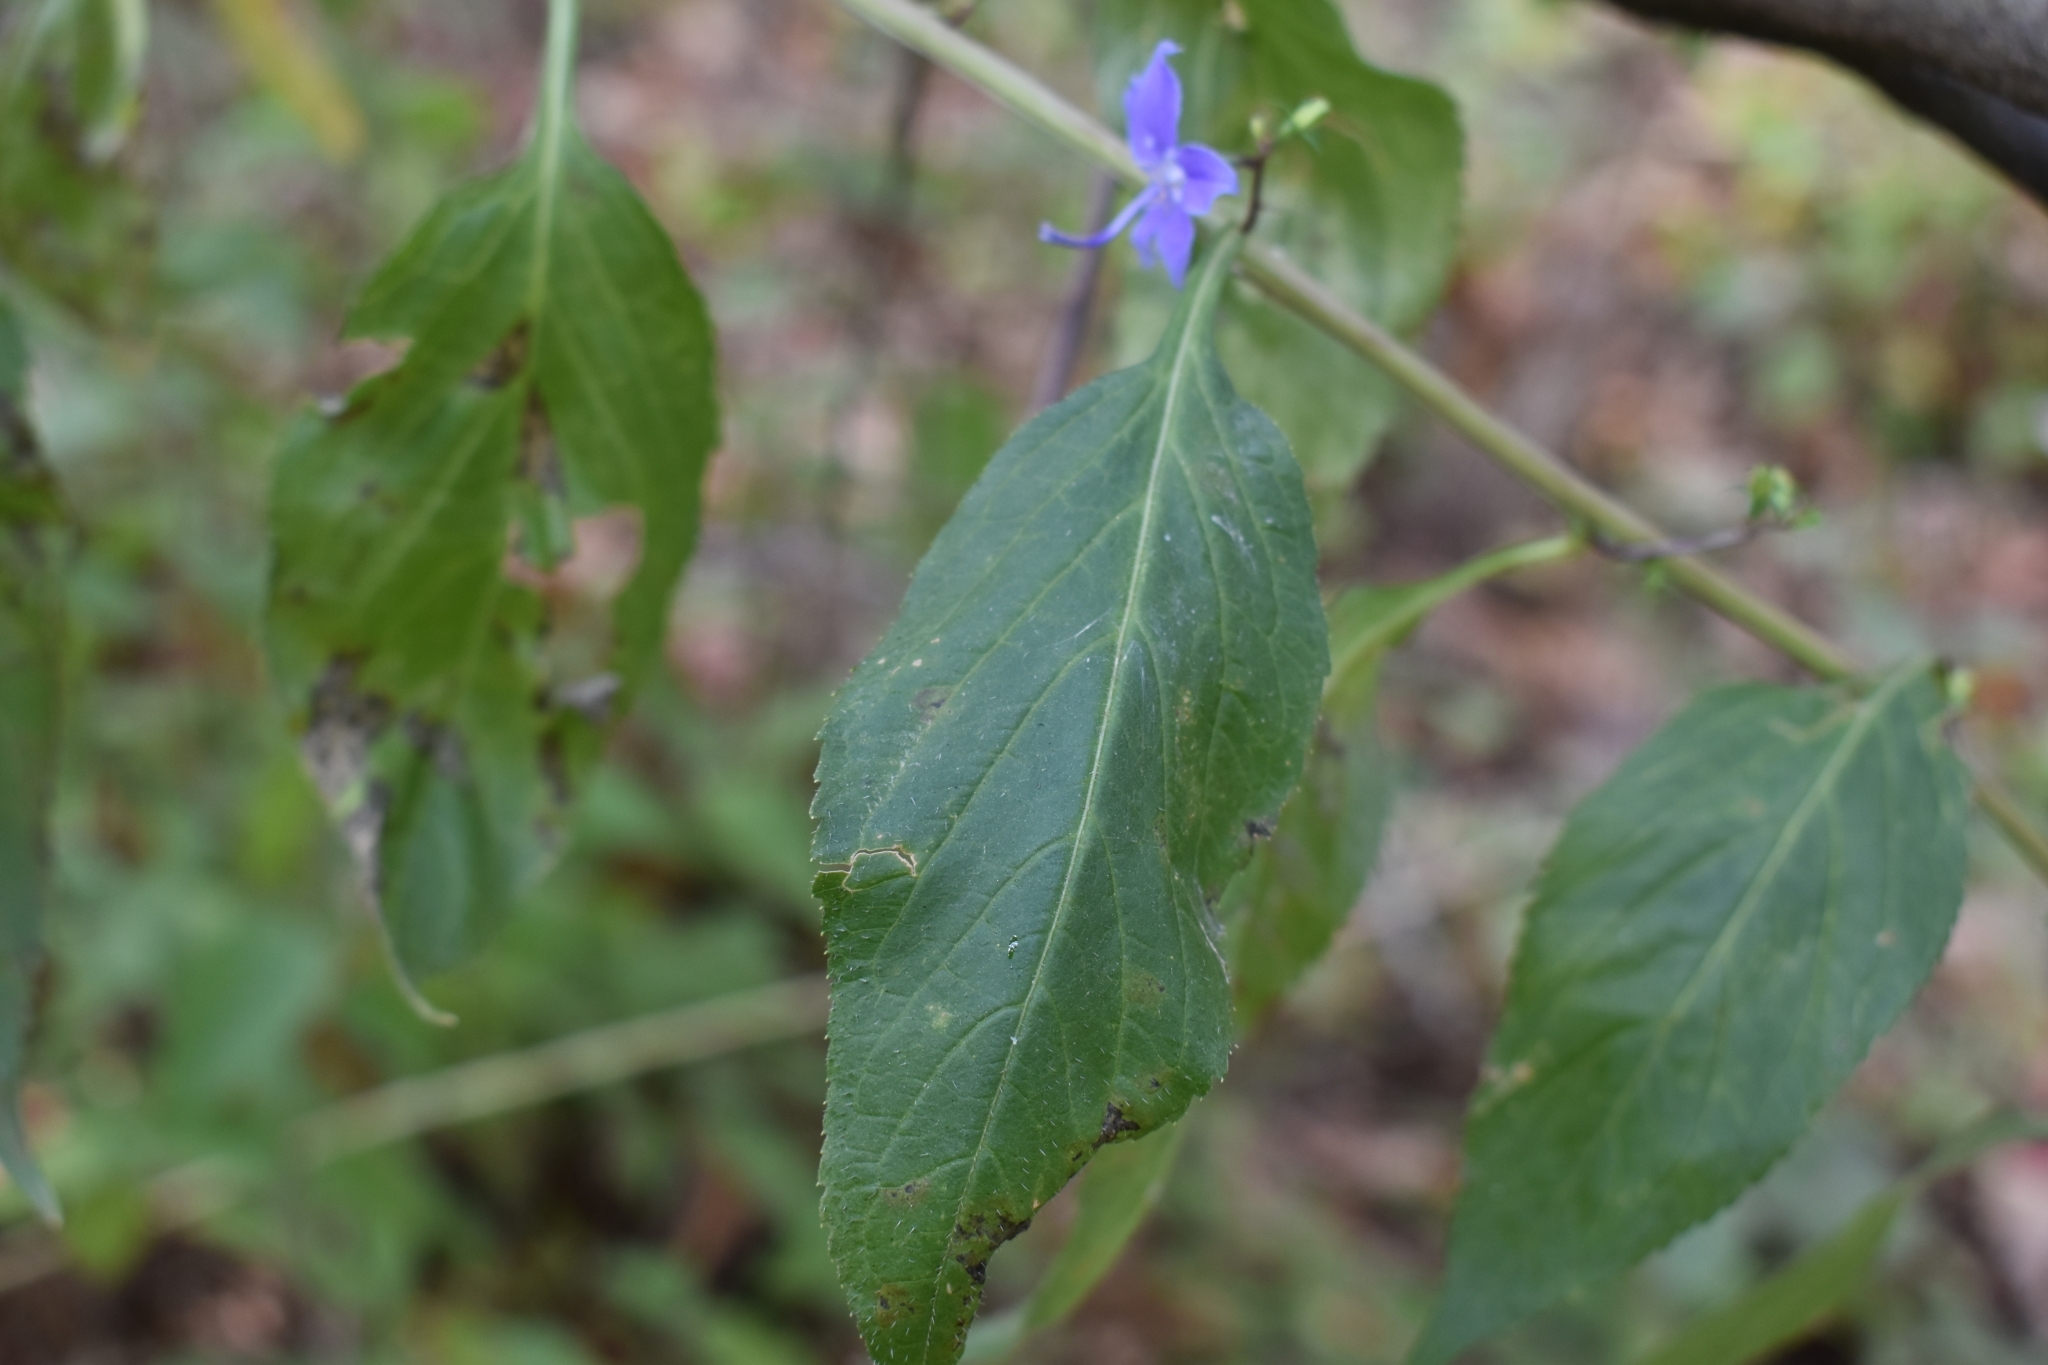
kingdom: Plantae
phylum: Tracheophyta
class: Magnoliopsida
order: Asterales
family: Campanulaceae
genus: Campanulastrum
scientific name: Campanulastrum americanum
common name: American bellflower
